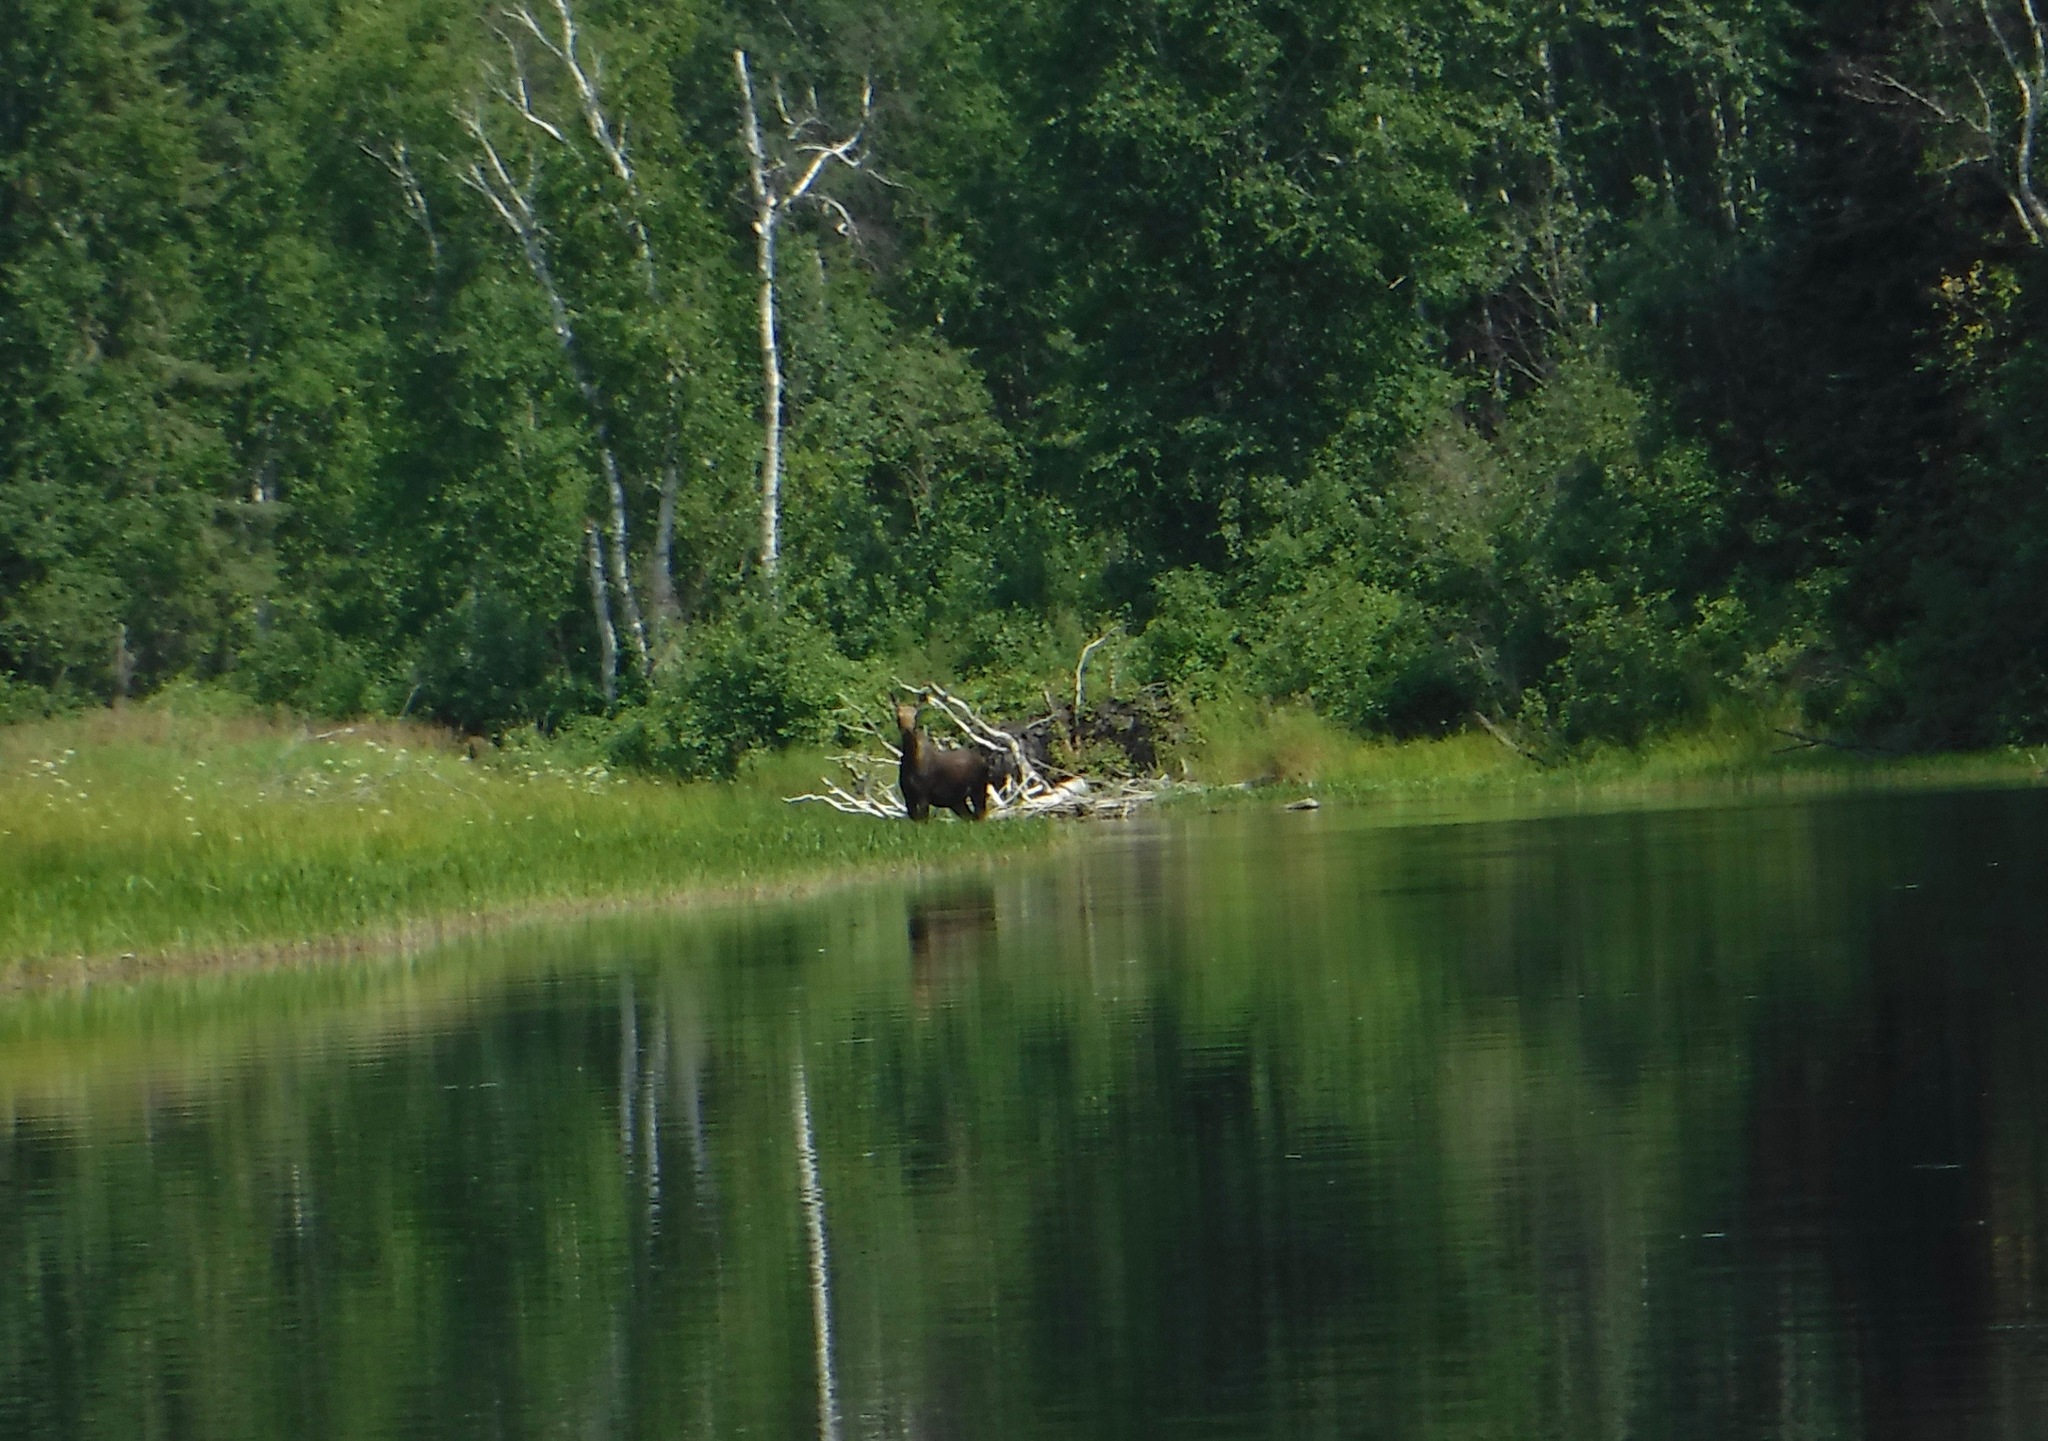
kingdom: Animalia
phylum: Chordata
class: Mammalia
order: Artiodactyla
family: Cervidae
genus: Alces
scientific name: Alces alces
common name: Moose
